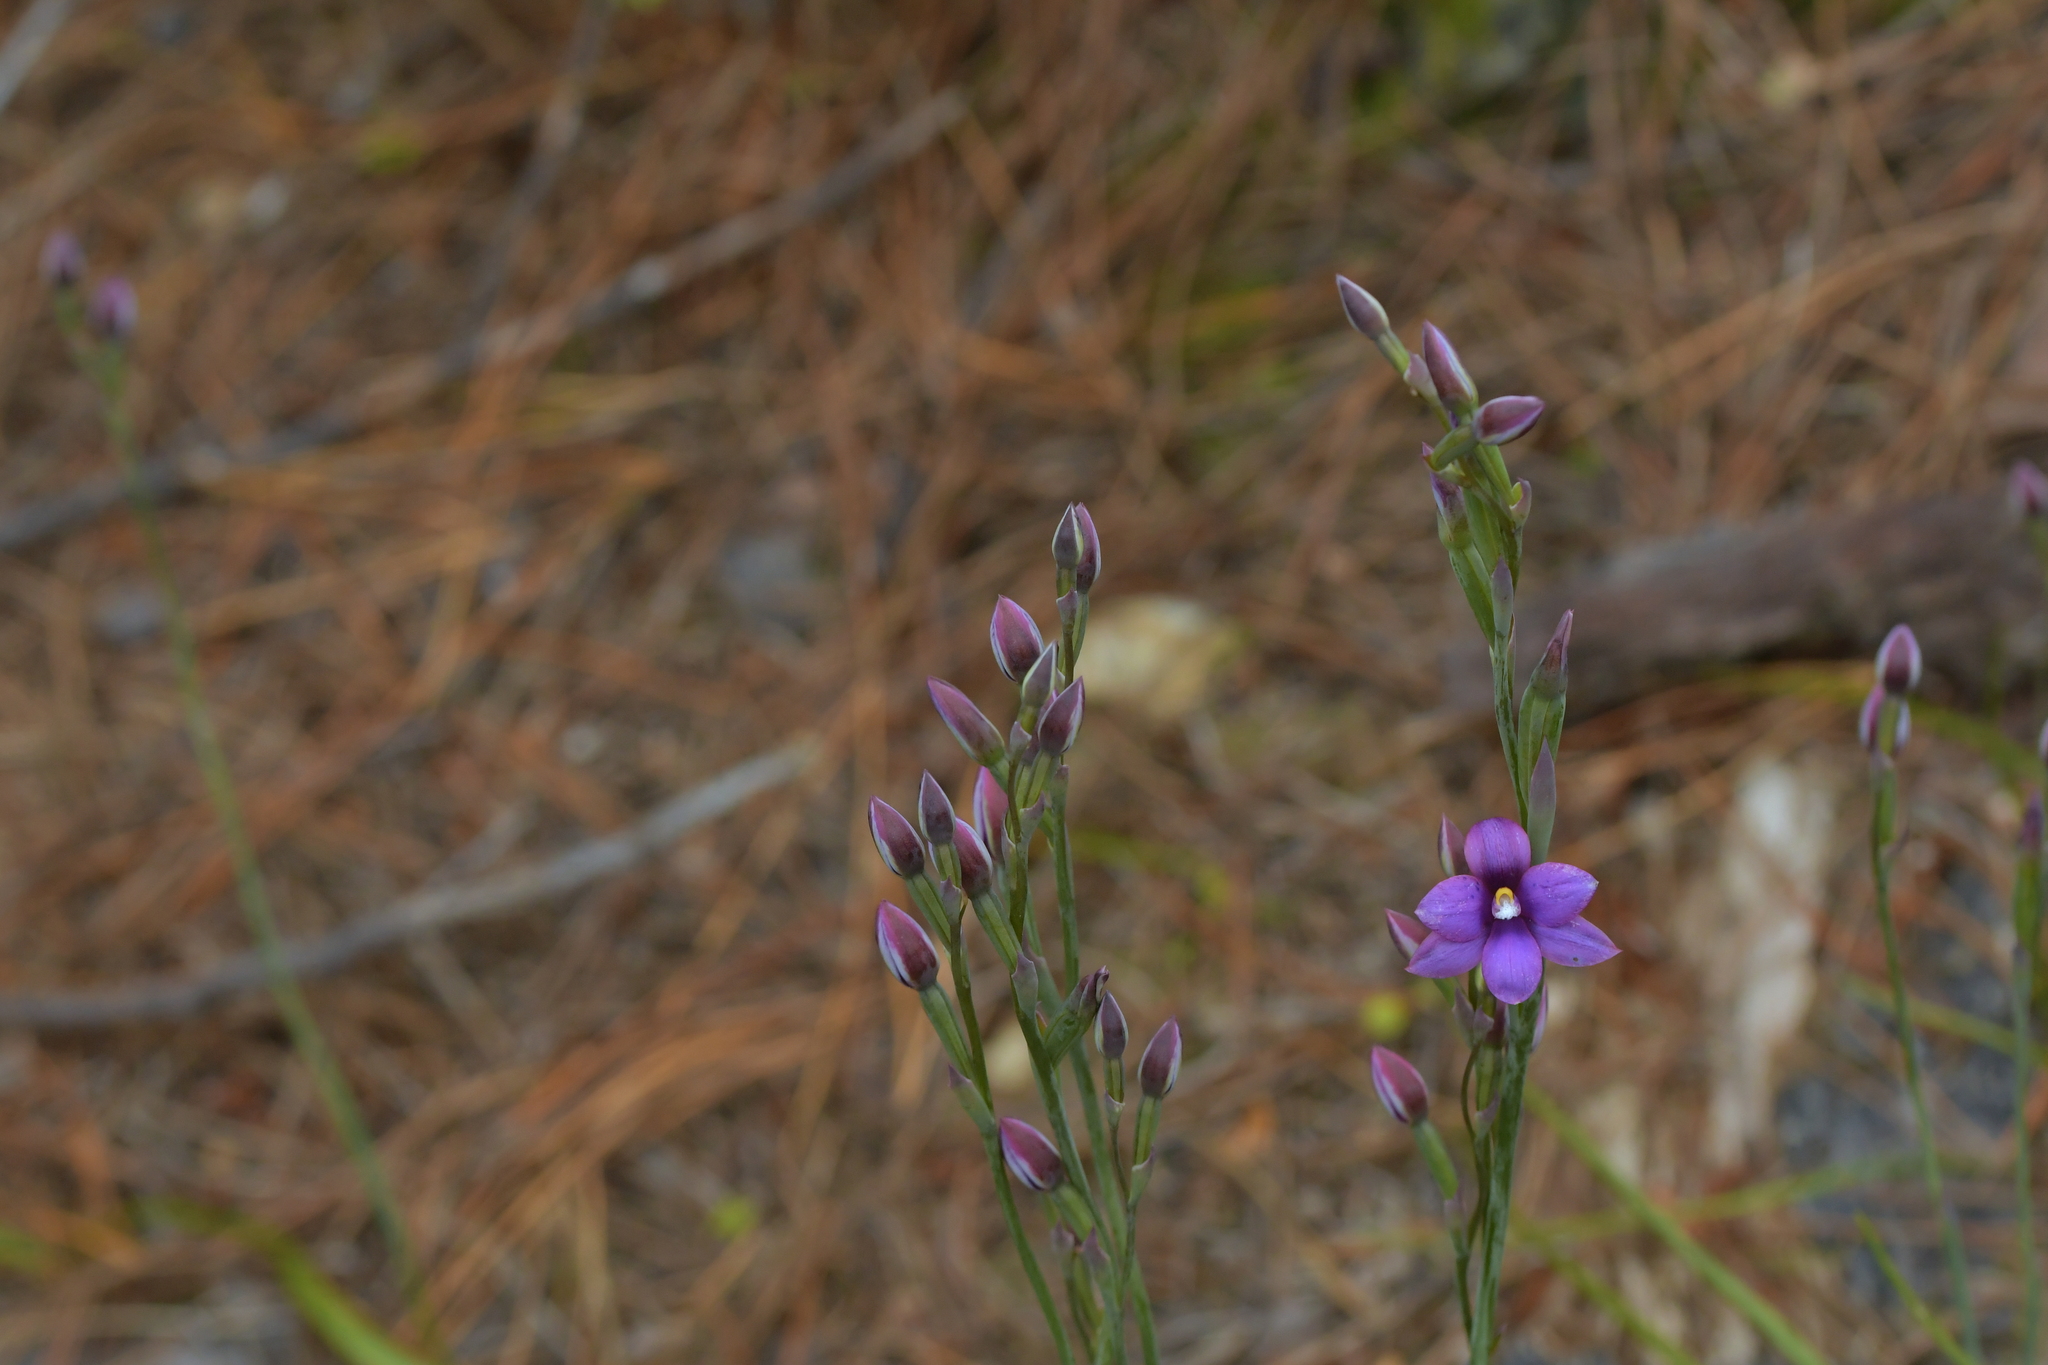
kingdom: Plantae
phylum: Tracheophyta
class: Liliopsida
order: Asparagales
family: Orchidaceae
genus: Thelymitra
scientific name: Thelymitra nervosa
